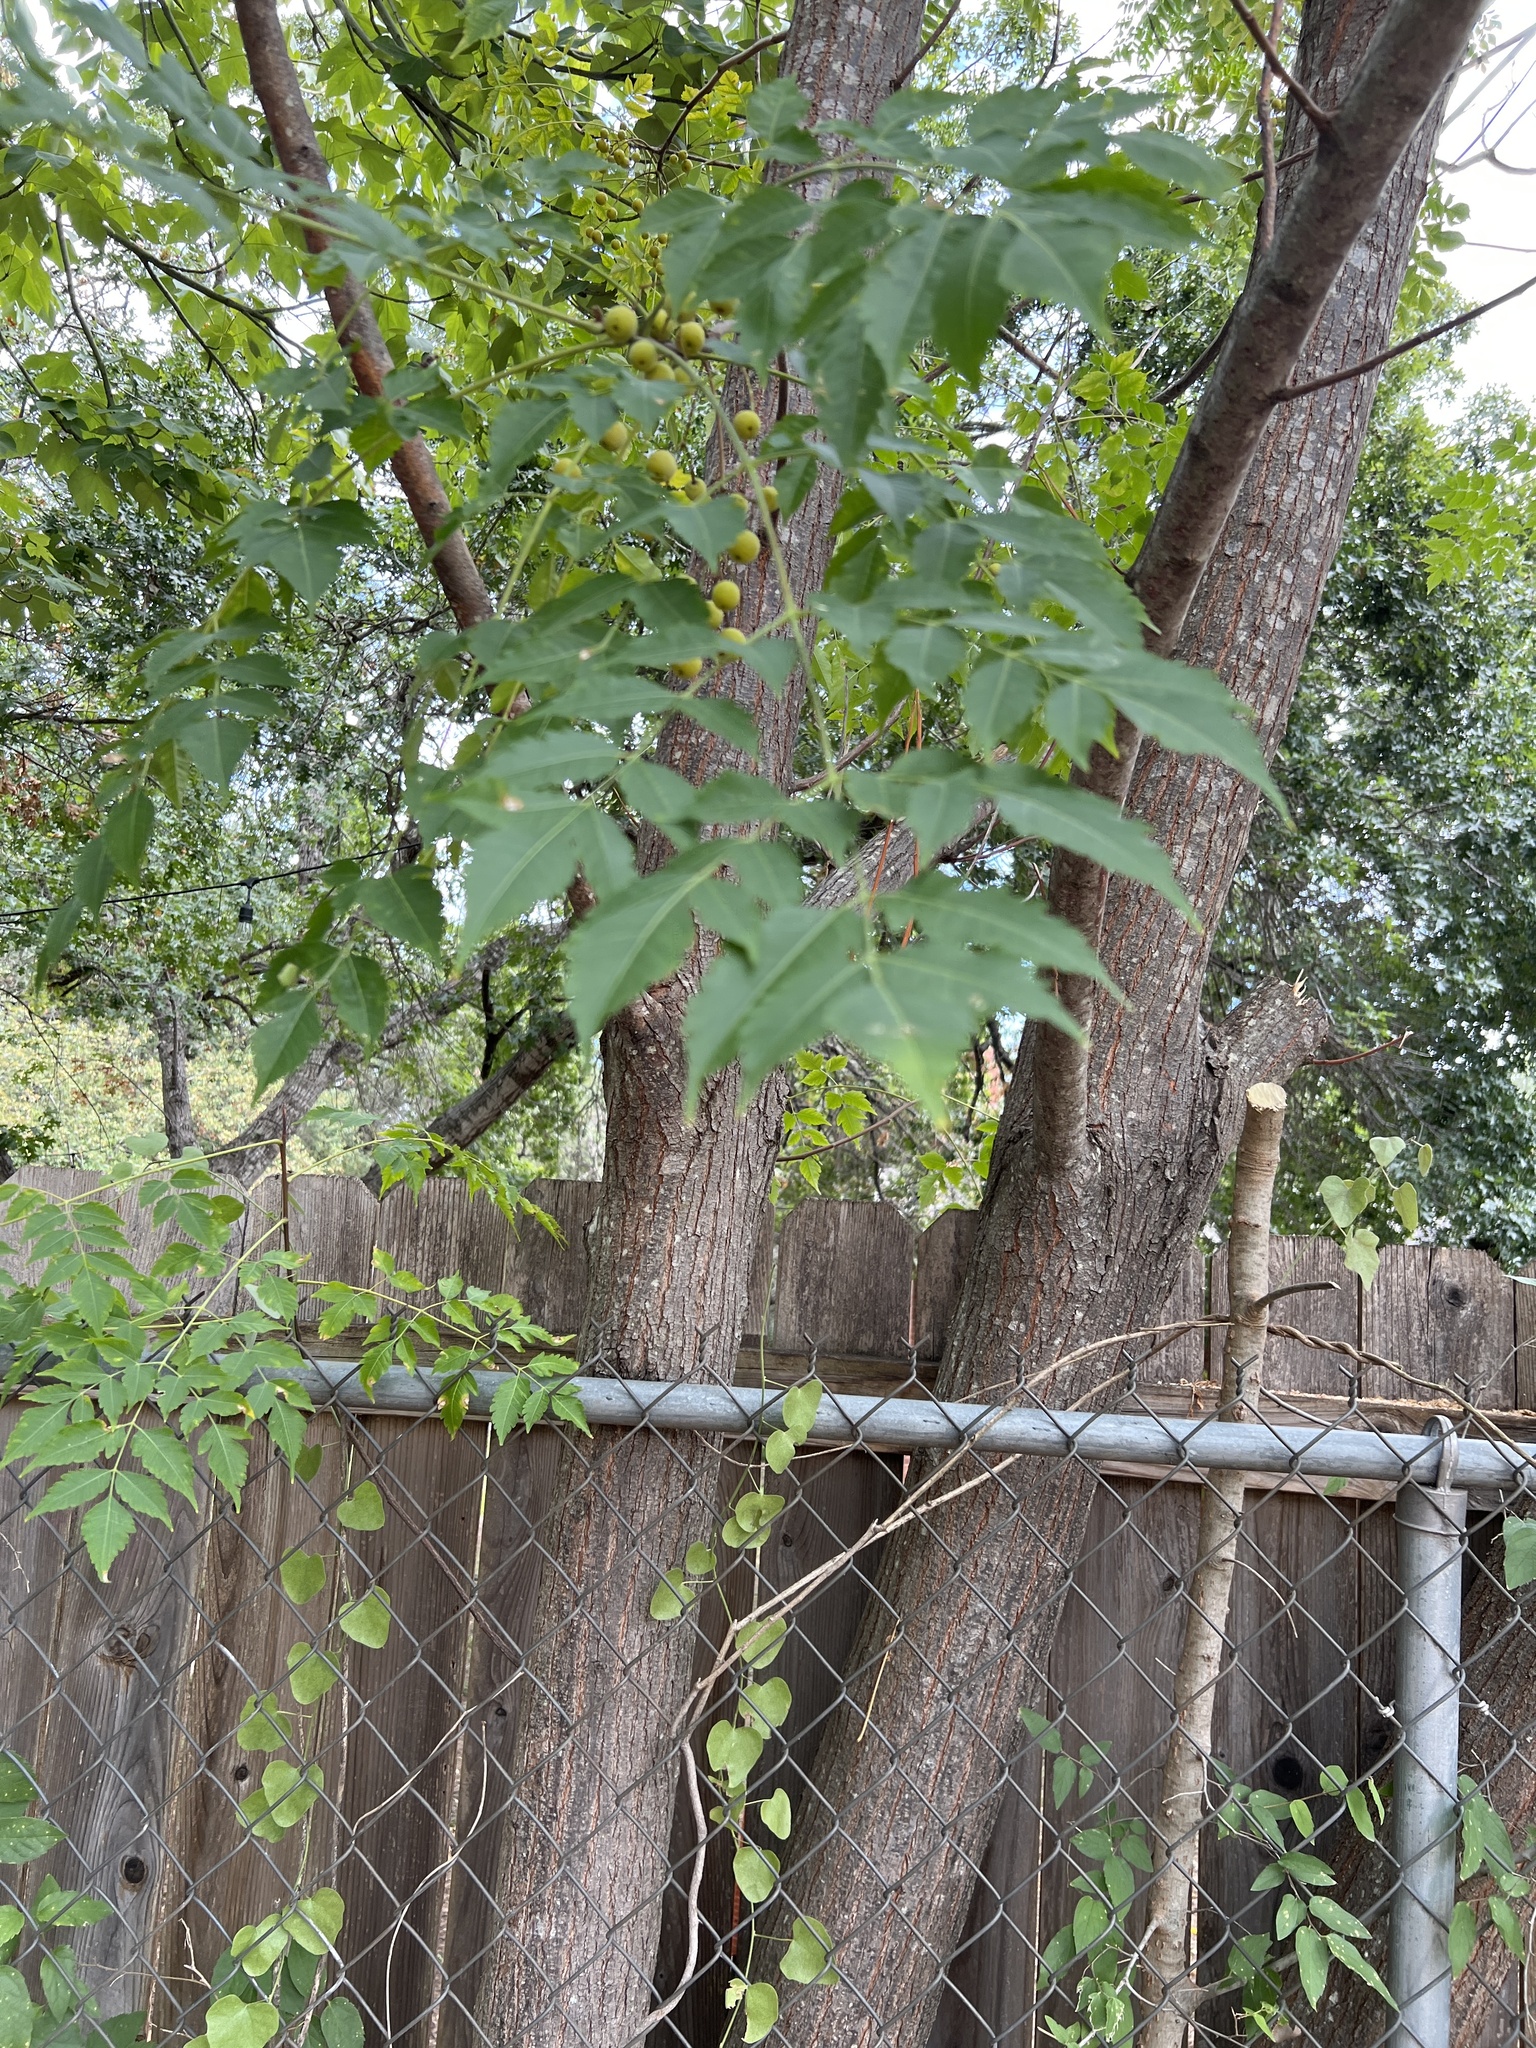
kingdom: Plantae
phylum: Tracheophyta
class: Magnoliopsida
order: Sapindales
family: Meliaceae
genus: Melia
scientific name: Melia azedarach
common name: Chinaberrytree
